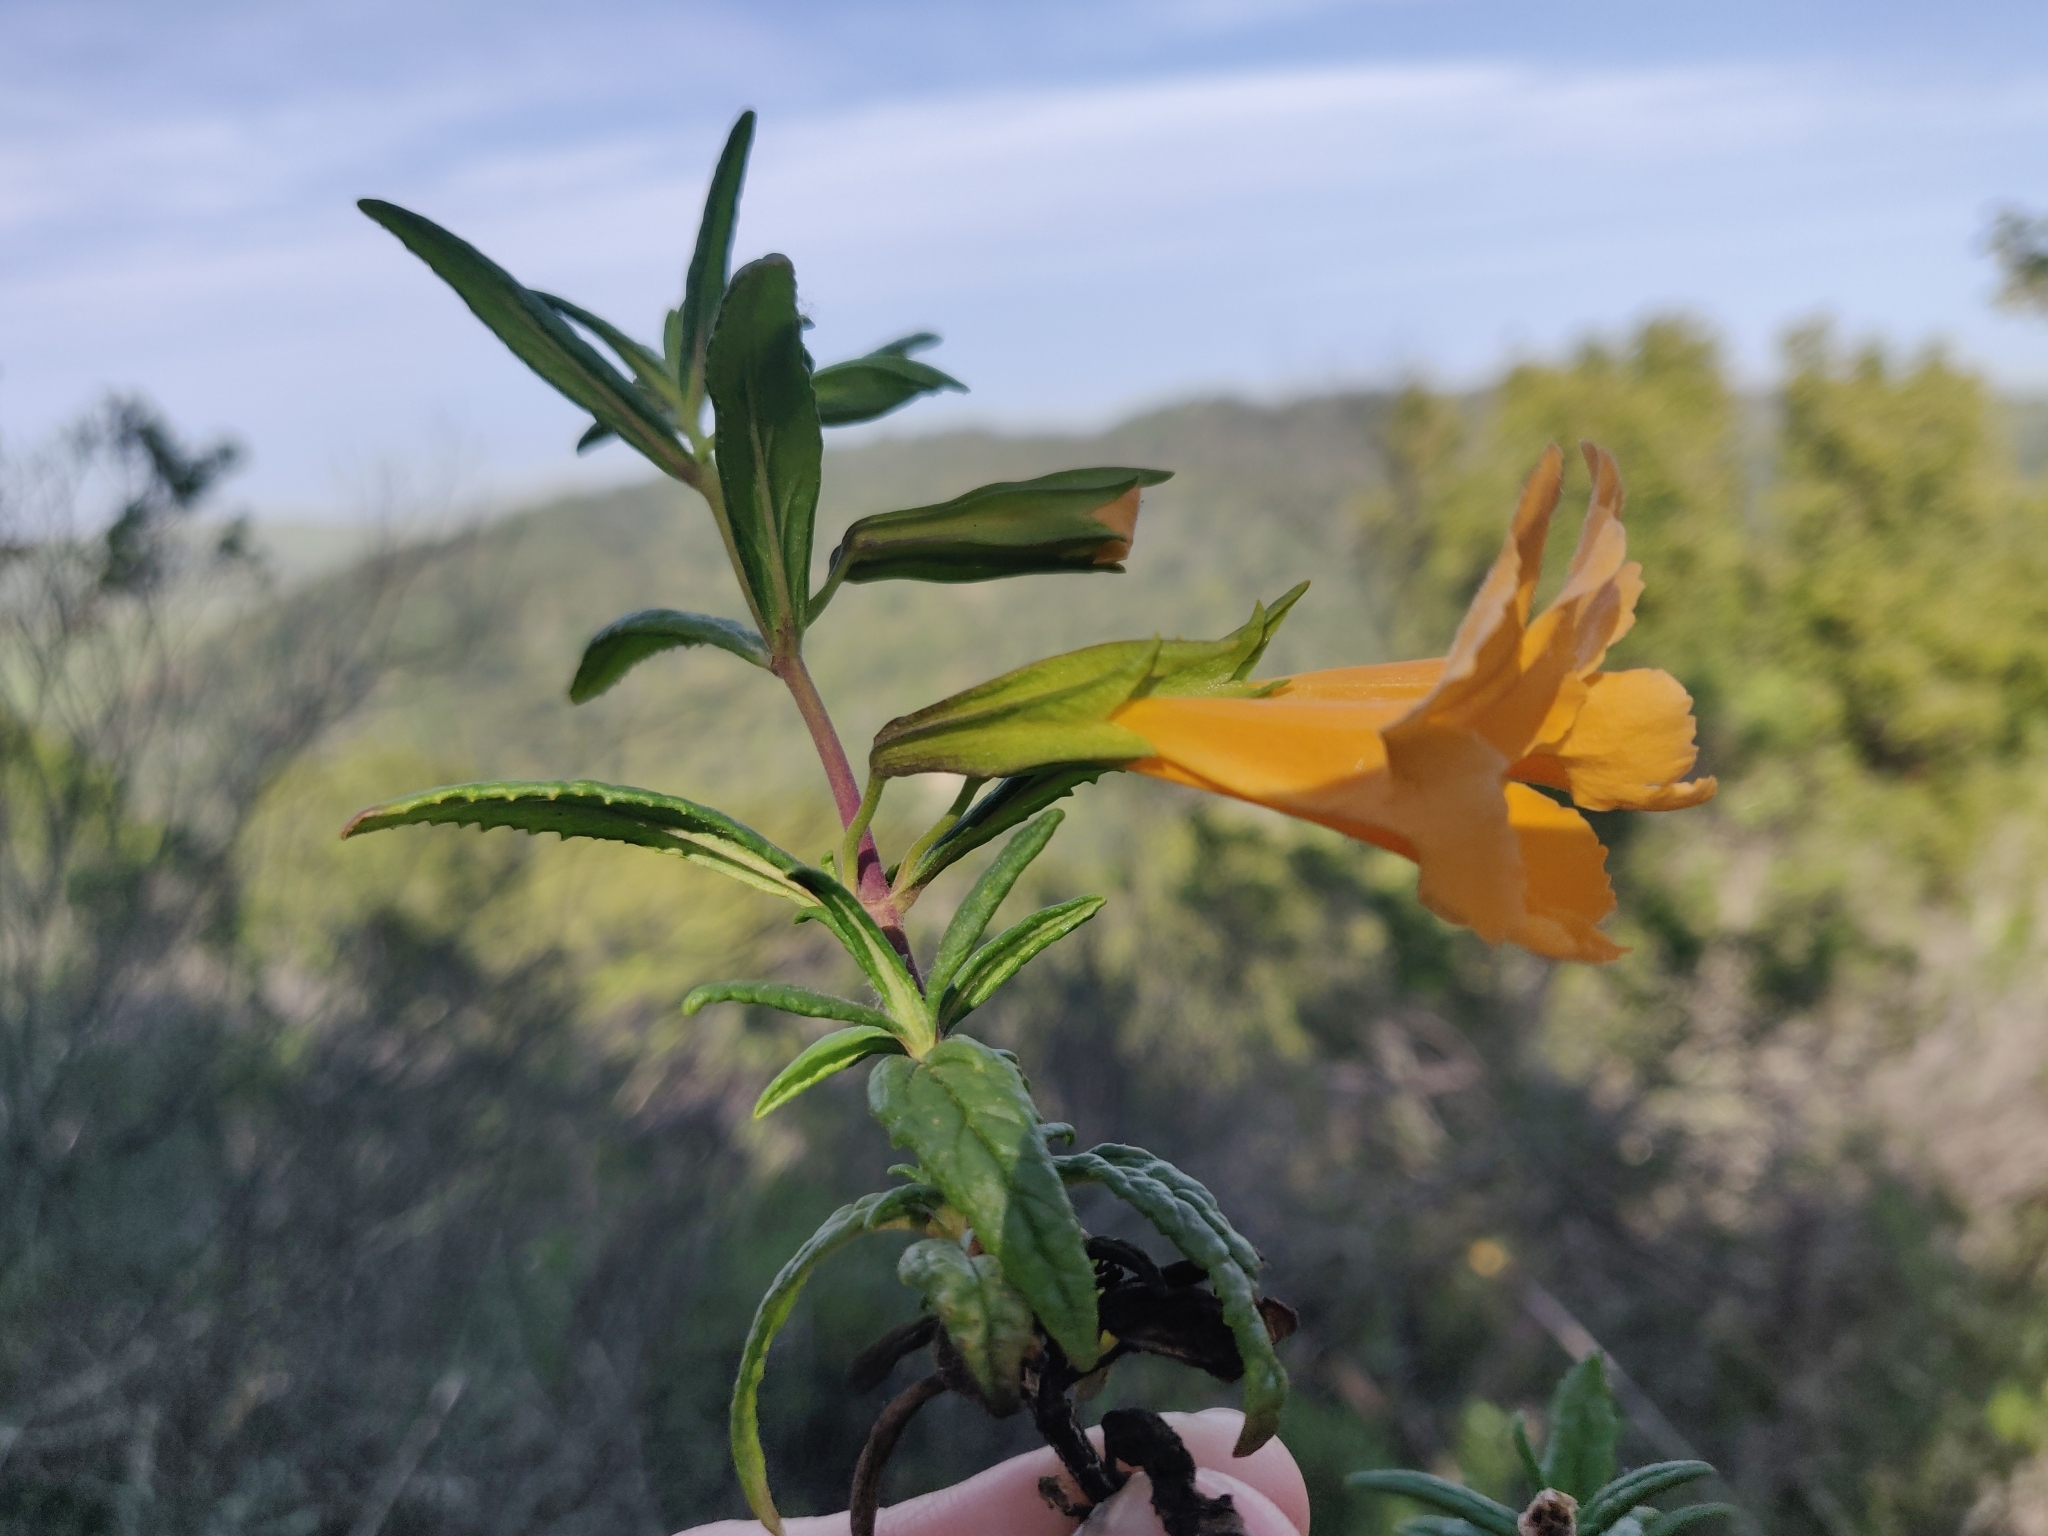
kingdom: Plantae
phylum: Tracheophyta
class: Magnoliopsida
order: Lamiales
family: Phrymaceae
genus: Diplacus
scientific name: Diplacus aurantiacus
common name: Bush monkey-flower
